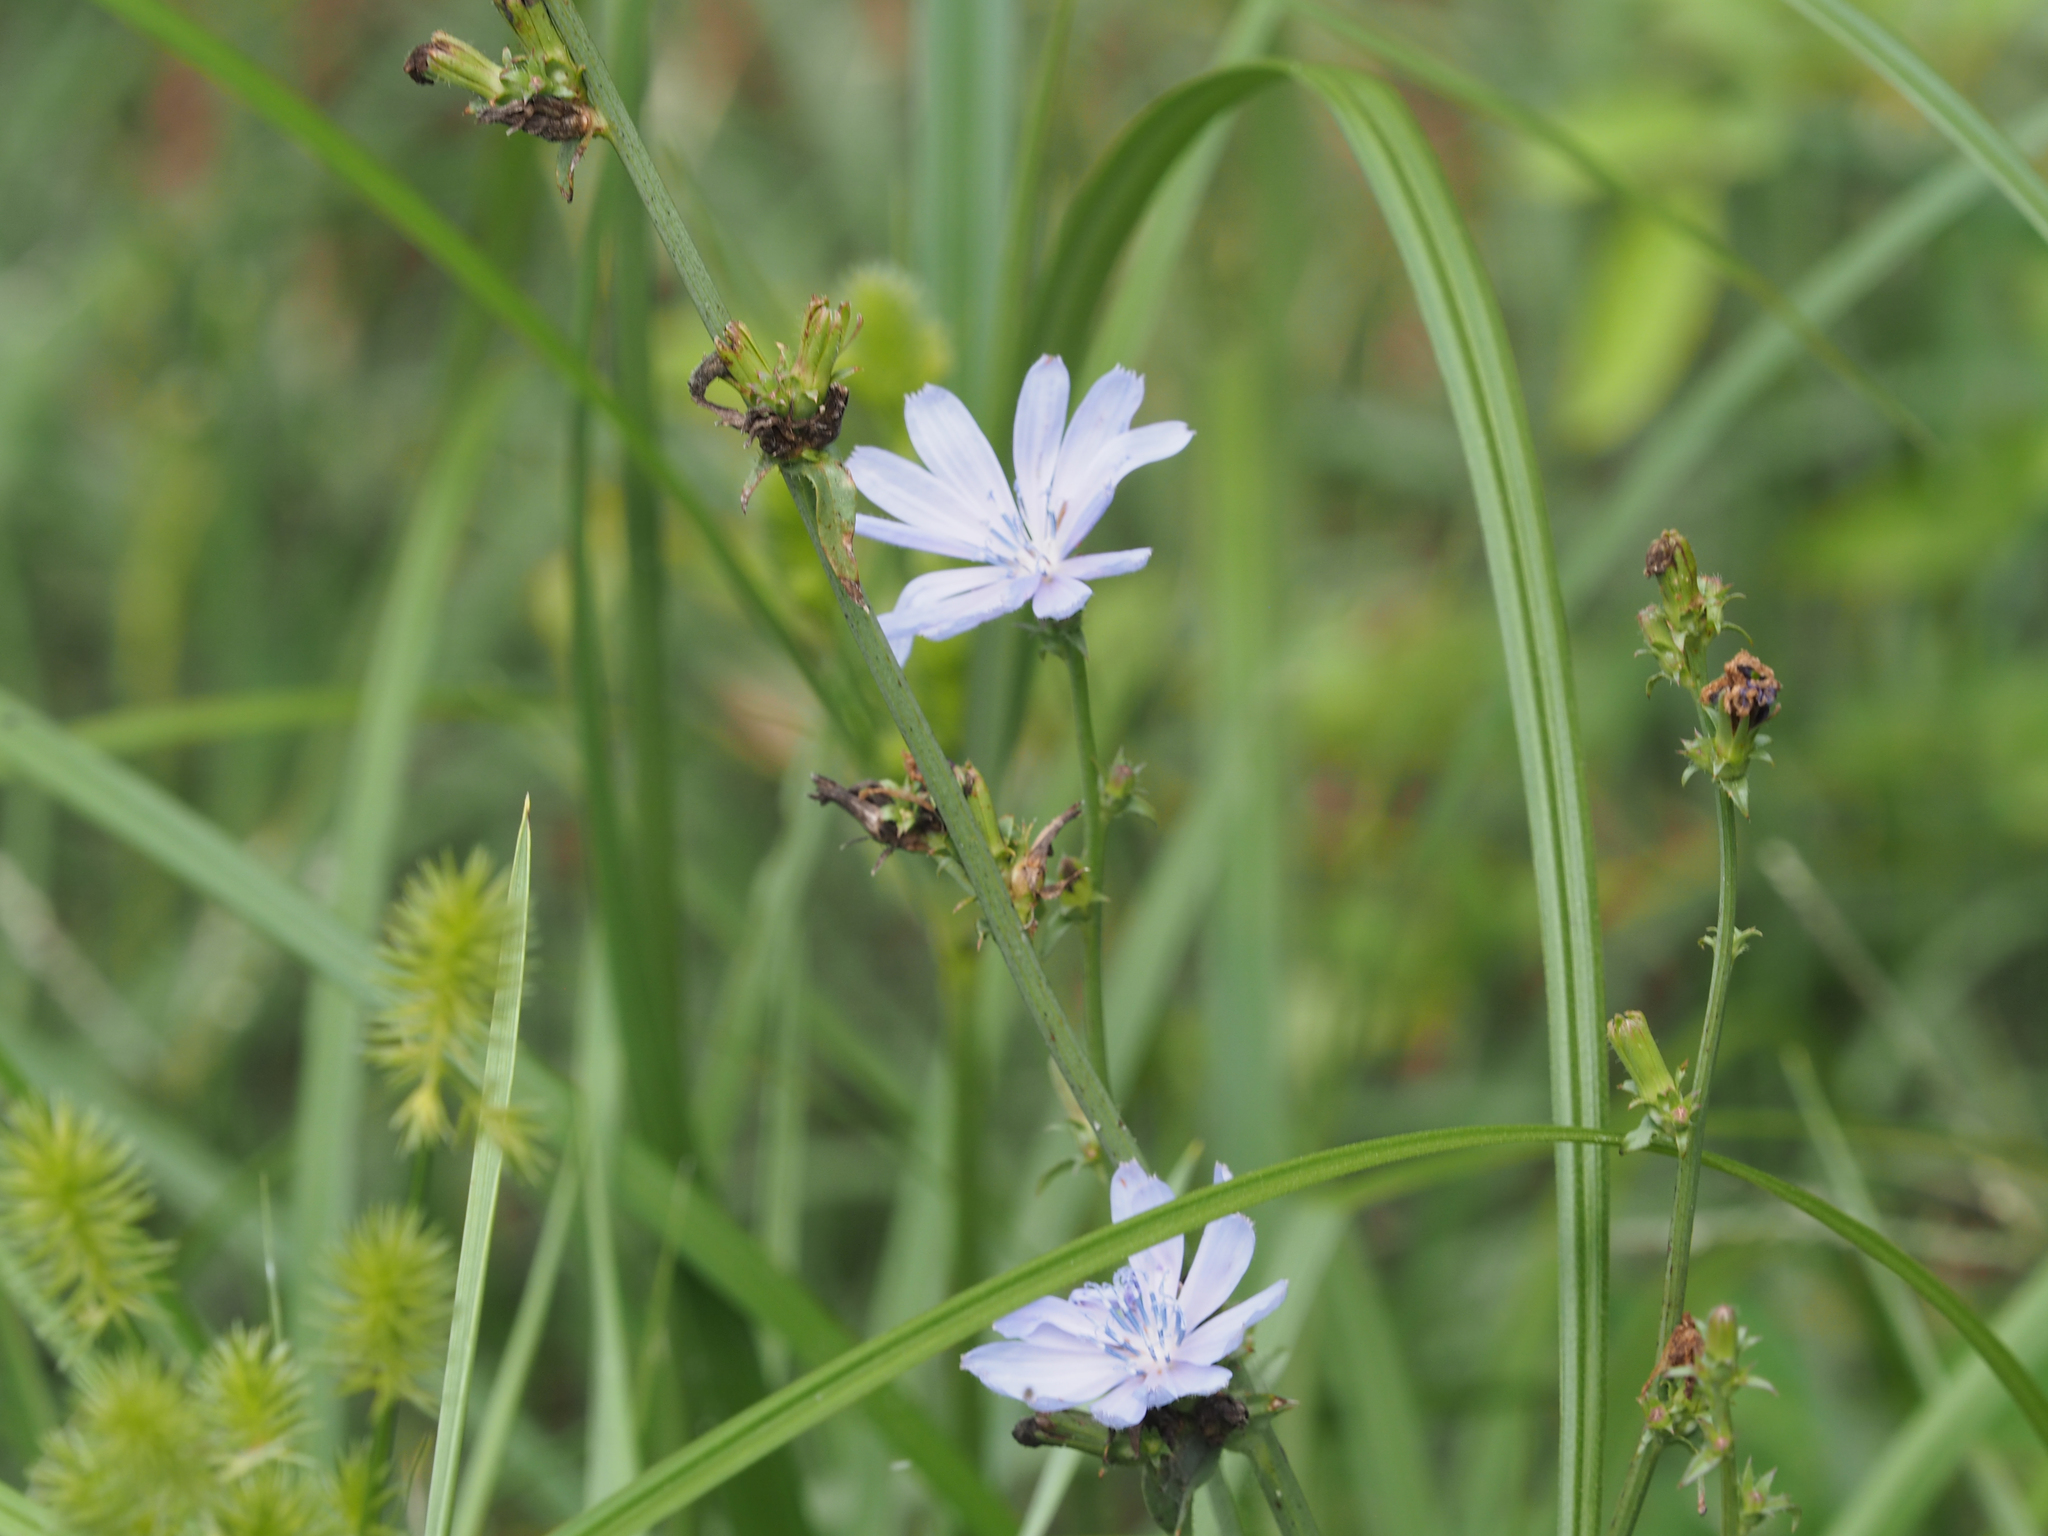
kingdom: Plantae
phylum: Tracheophyta
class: Magnoliopsida
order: Asterales
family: Asteraceae
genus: Cichorium
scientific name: Cichorium intybus
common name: Chicory
